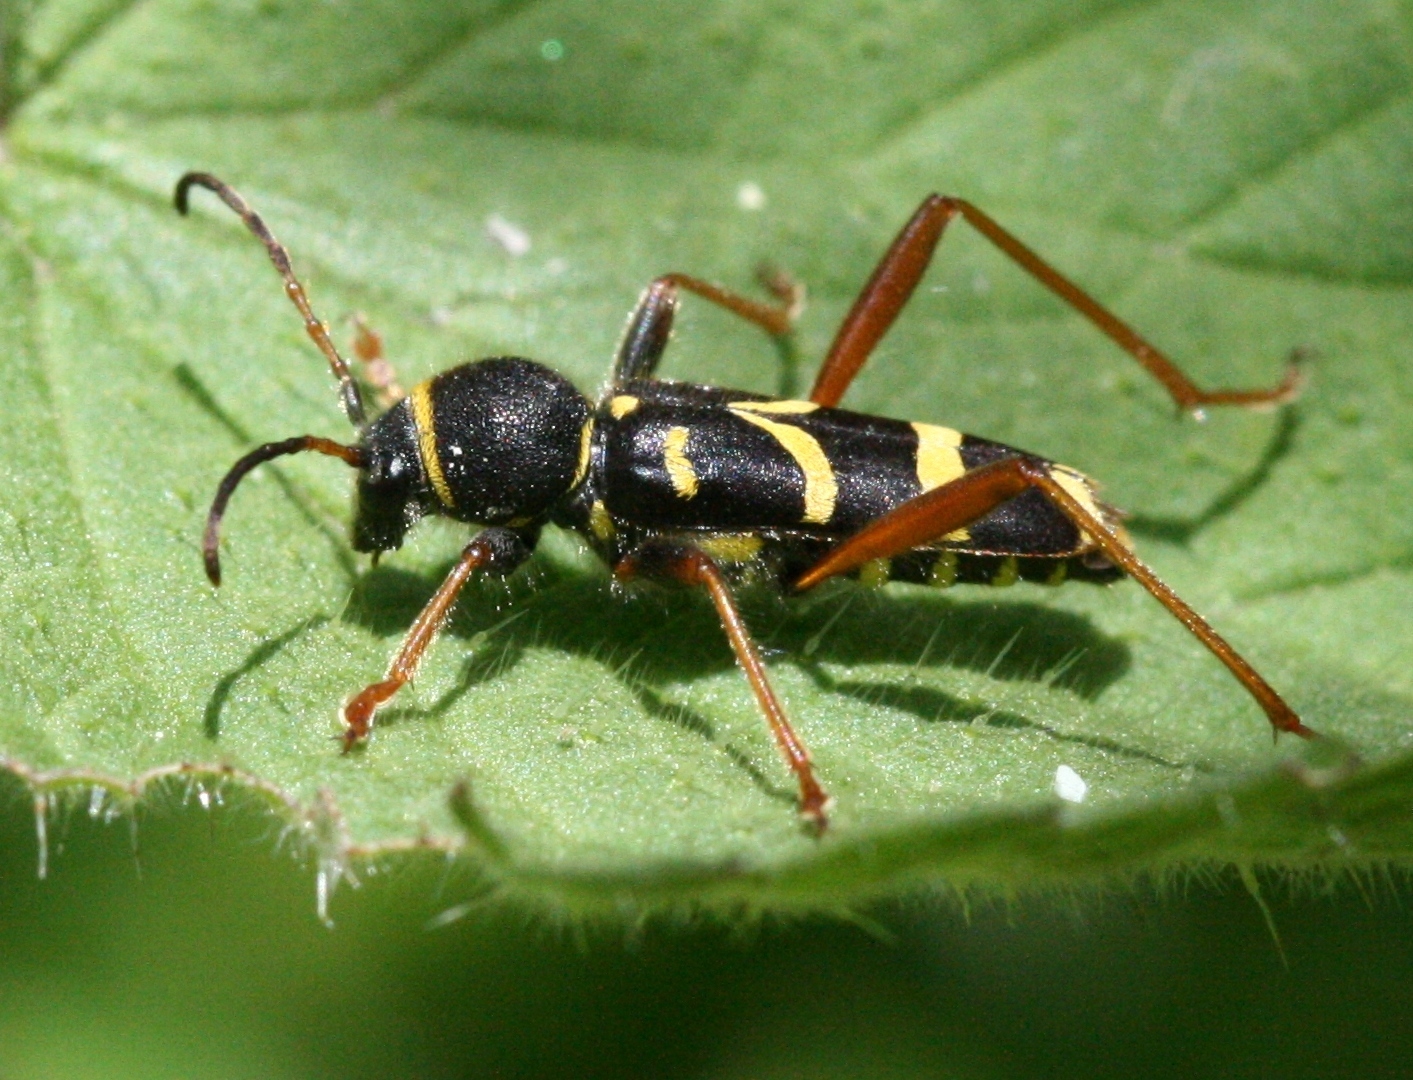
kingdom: Animalia
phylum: Arthropoda
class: Insecta
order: Coleoptera
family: Cerambycidae
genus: Clytus
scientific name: Clytus arietis
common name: Wasp beetle
